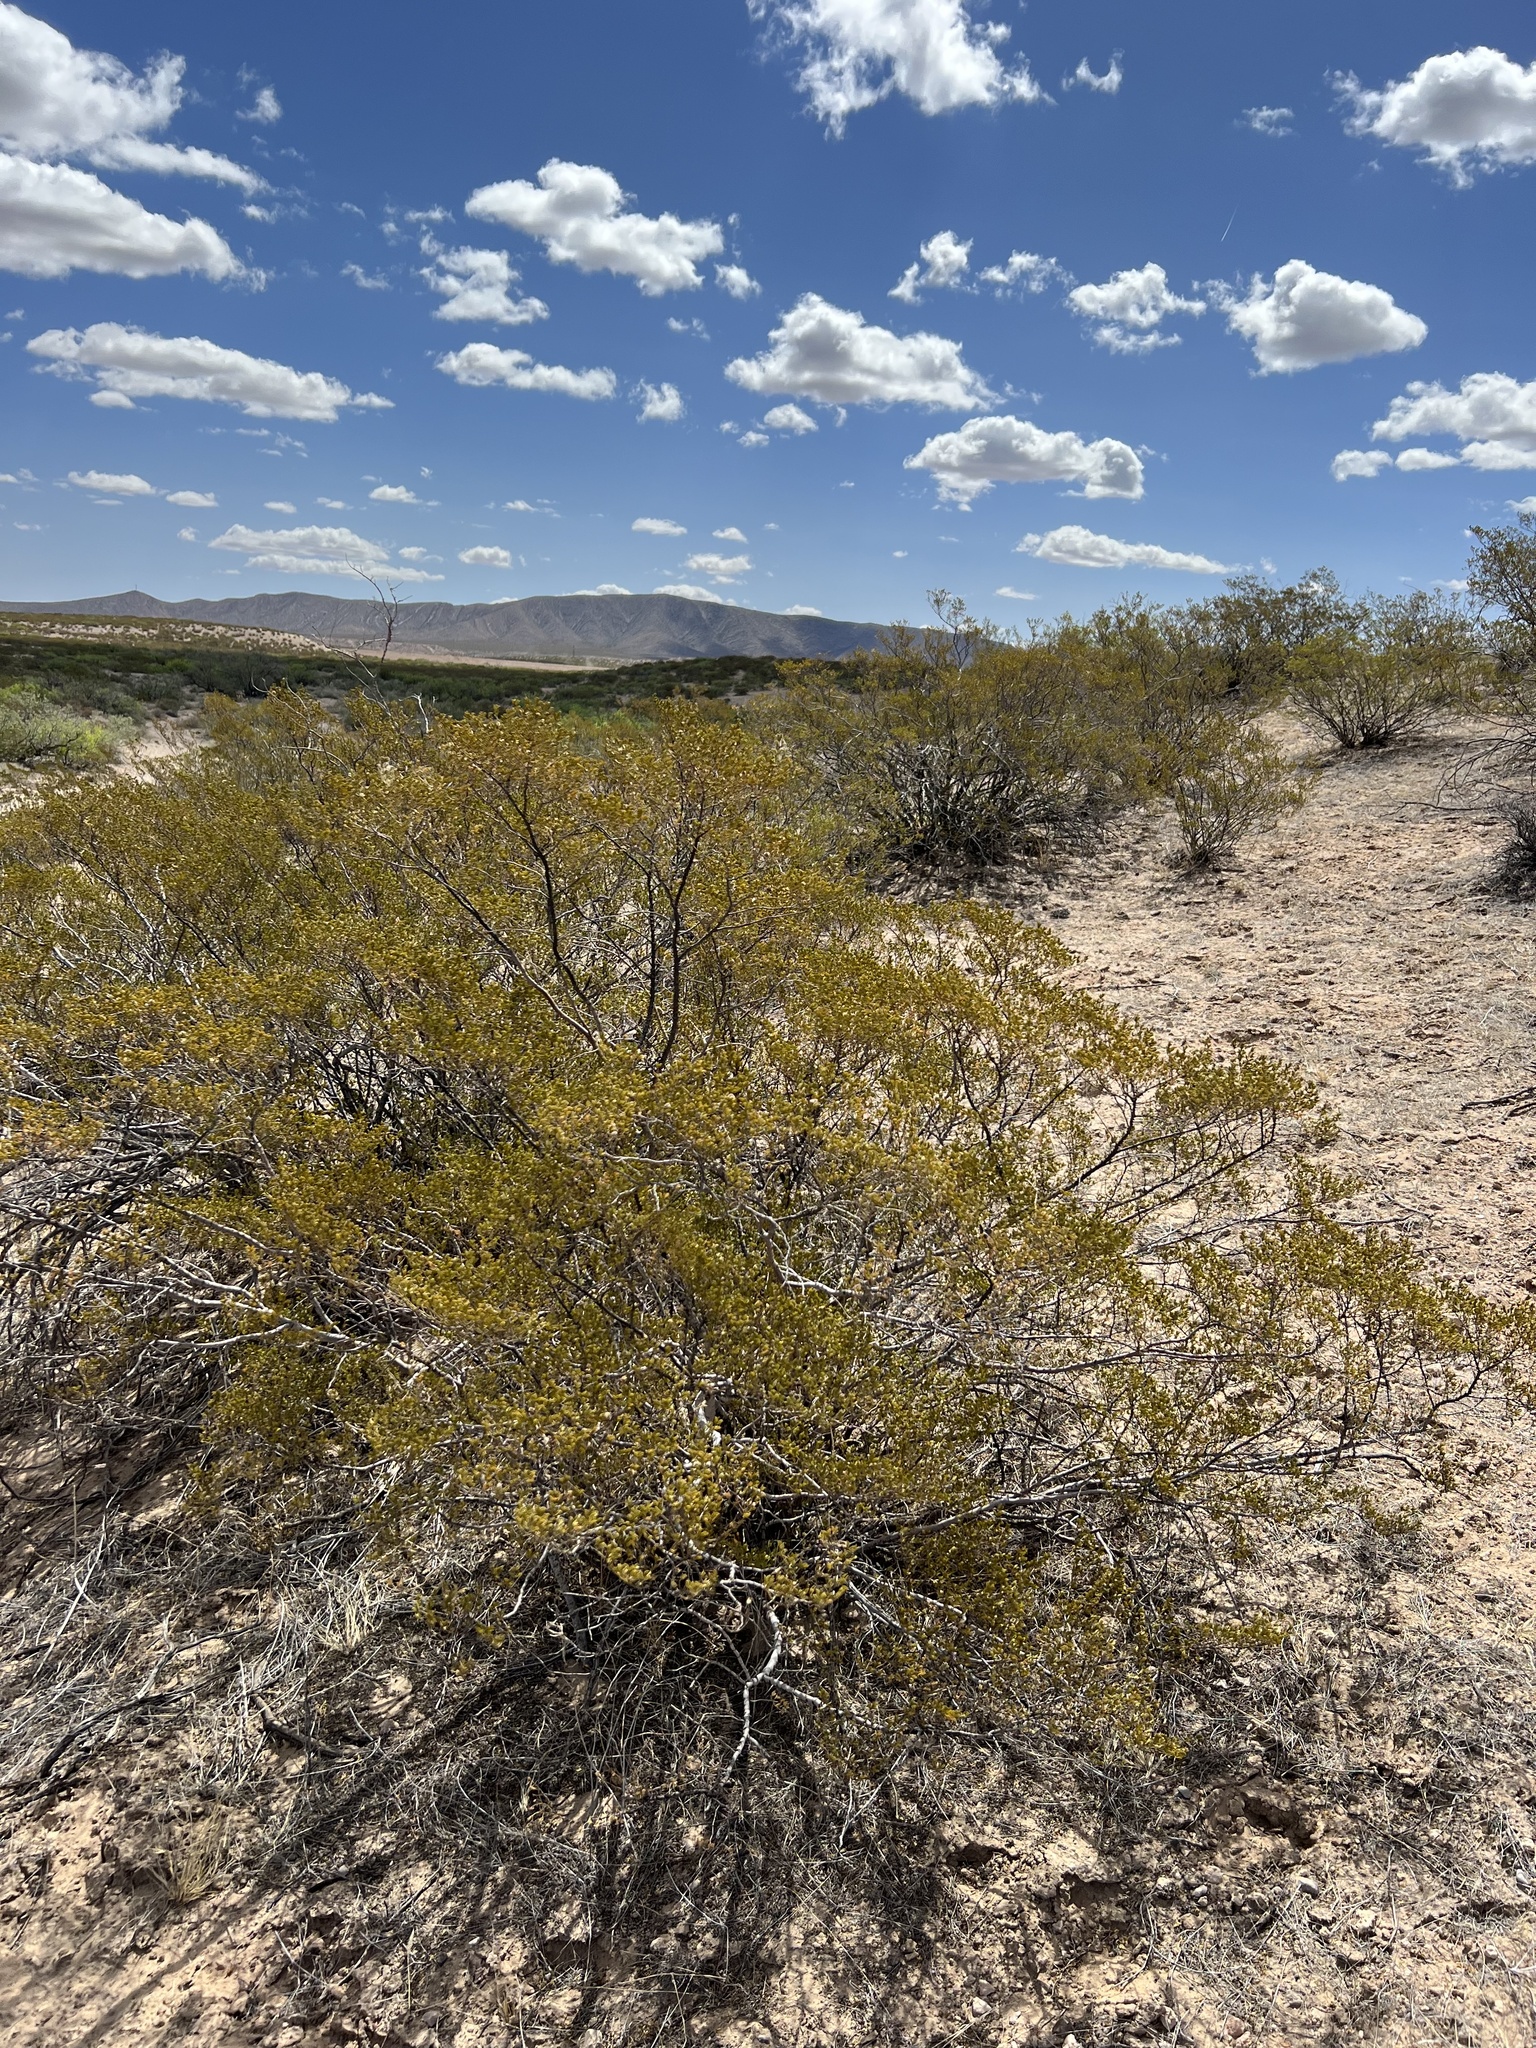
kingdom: Plantae
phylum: Tracheophyta
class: Magnoliopsida
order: Zygophyllales
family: Zygophyllaceae
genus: Larrea
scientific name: Larrea tridentata
